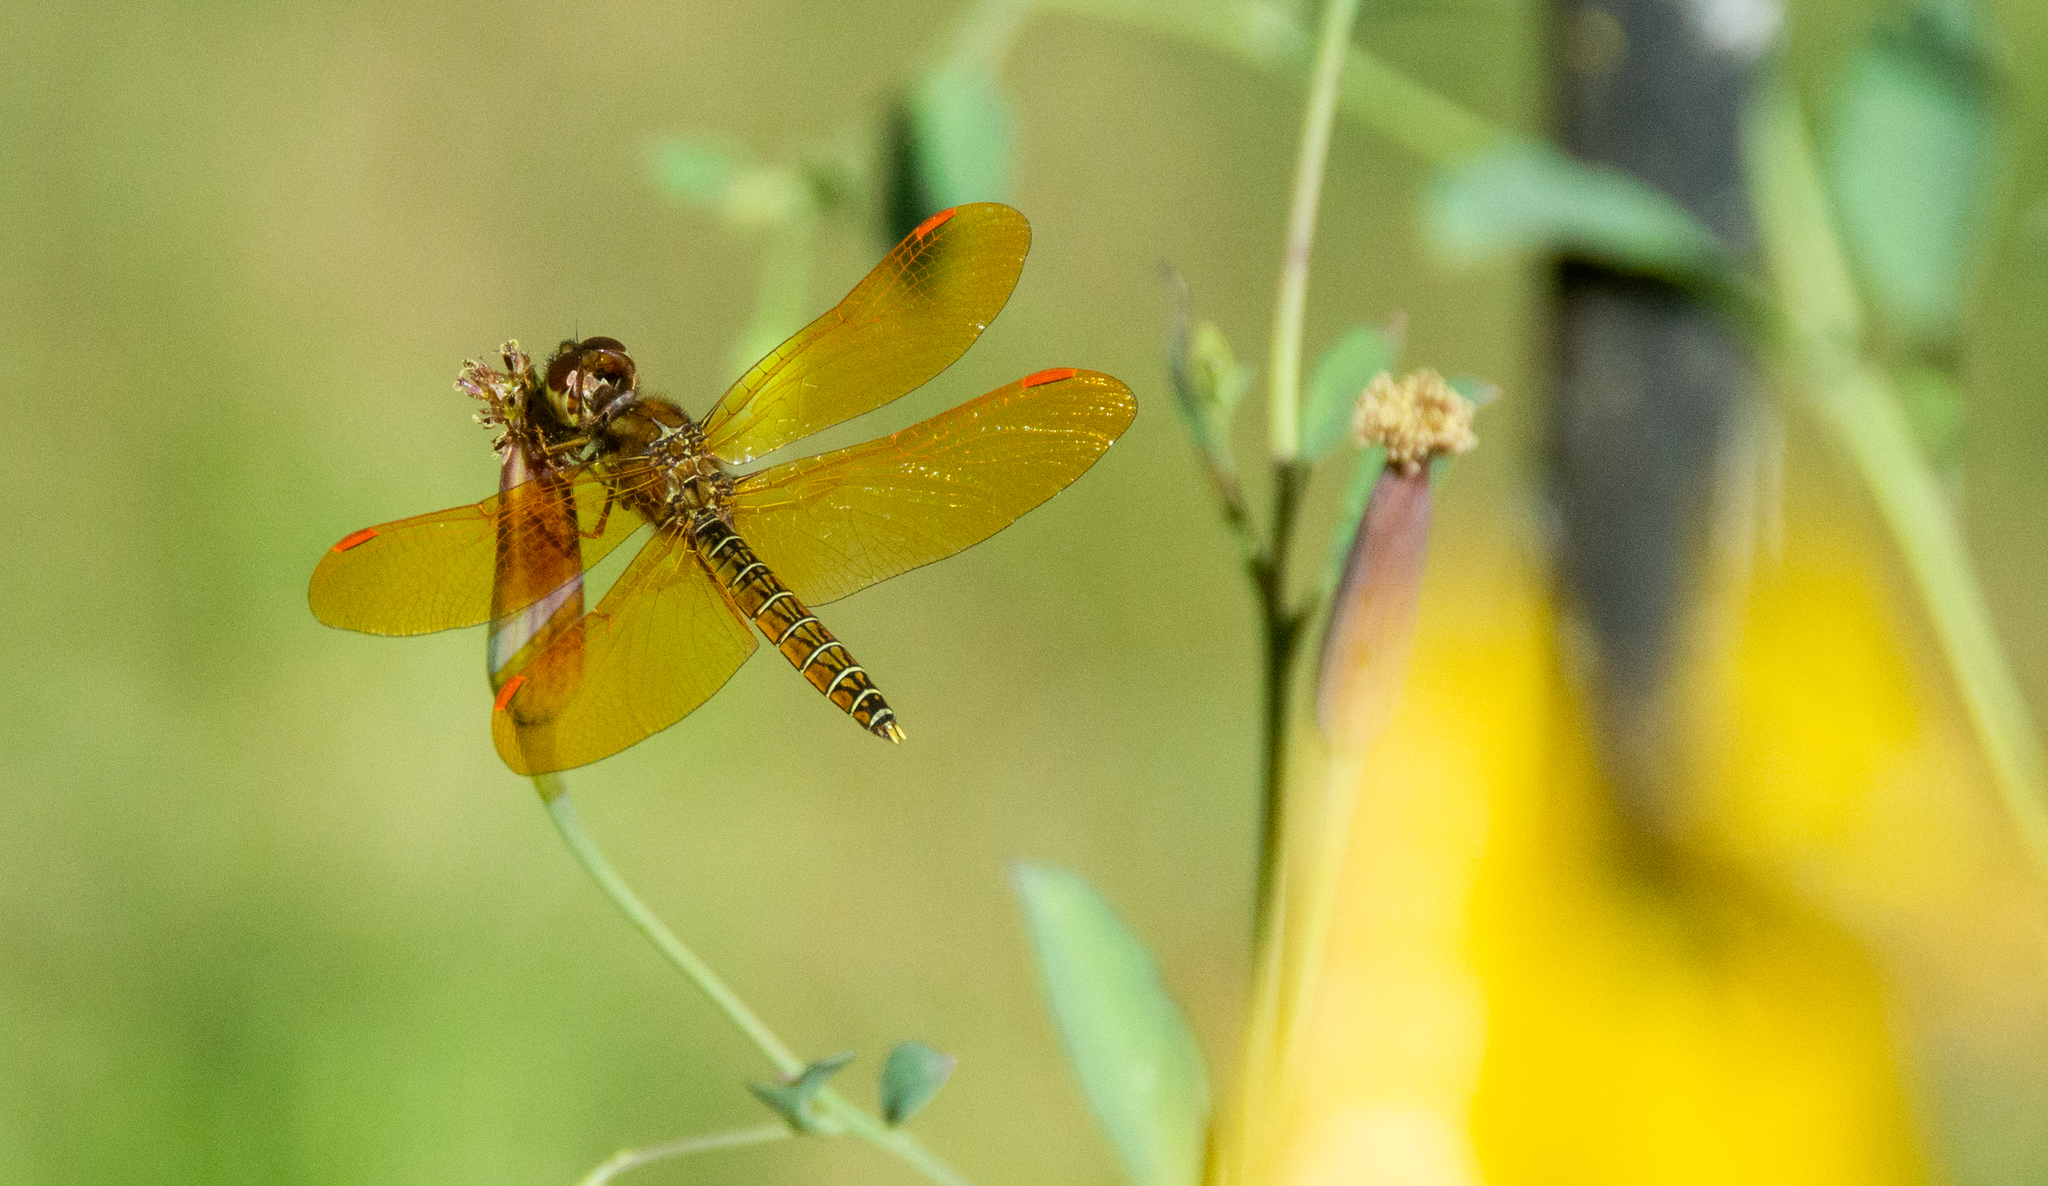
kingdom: Animalia
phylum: Arthropoda
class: Insecta
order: Odonata
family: Libellulidae
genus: Perithemis
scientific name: Perithemis tenera
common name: Eastern amberwing
